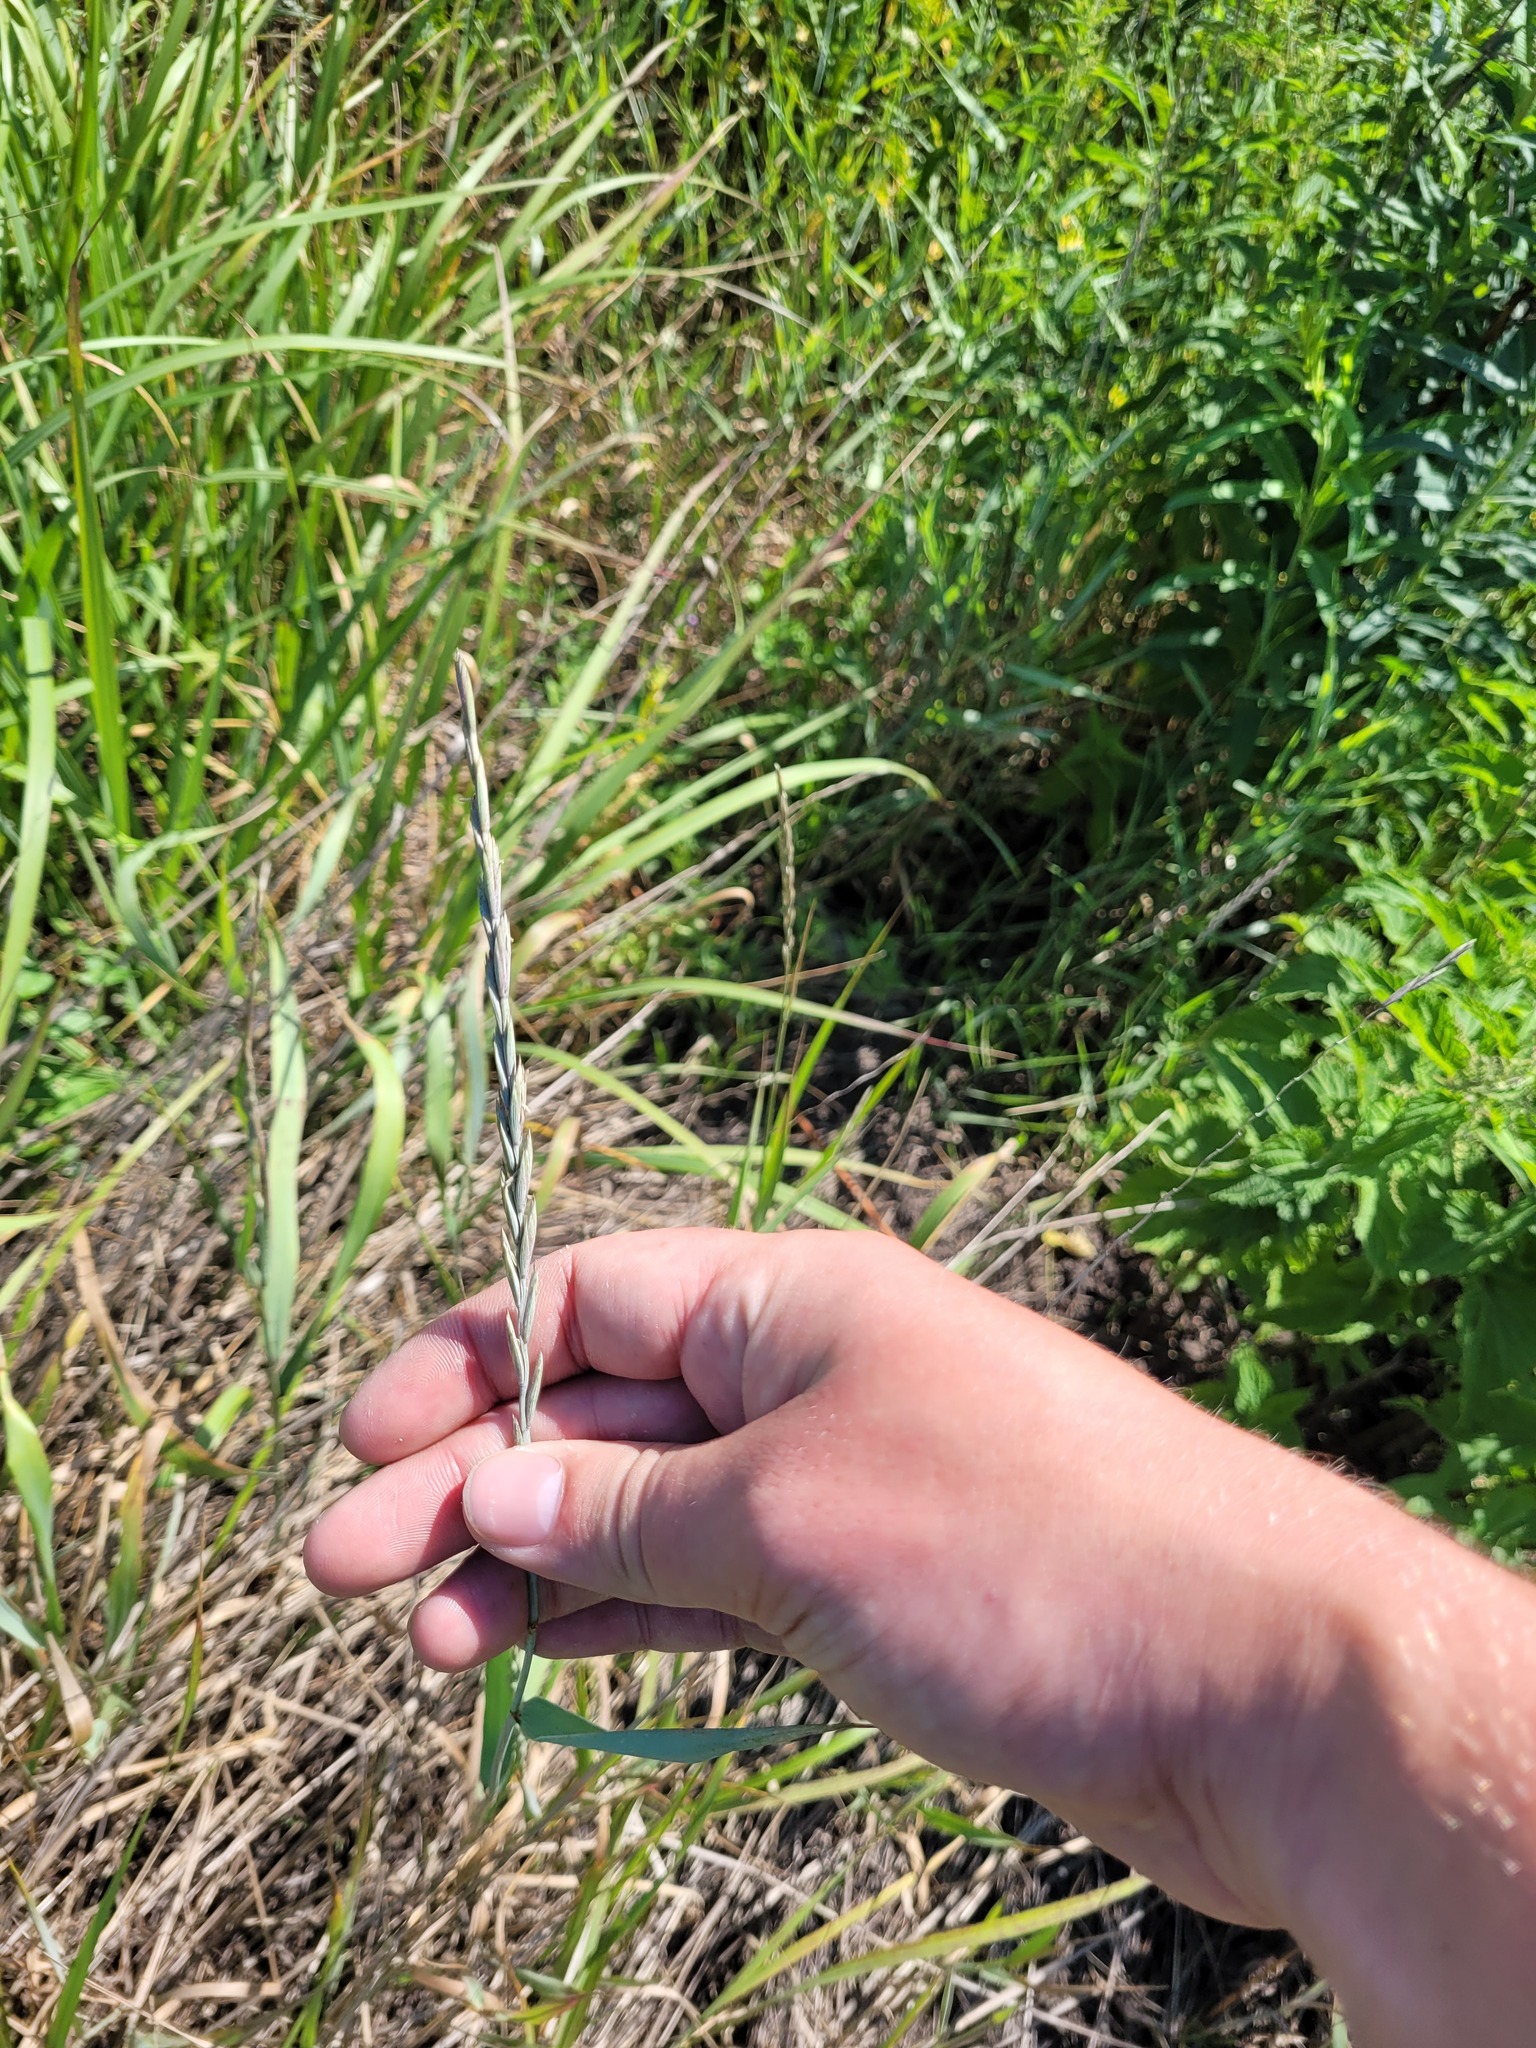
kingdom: Plantae
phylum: Tracheophyta
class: Liliopsida
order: Poales
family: Poaceae
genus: Elymus
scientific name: Elymus repens
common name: Quackgrass
